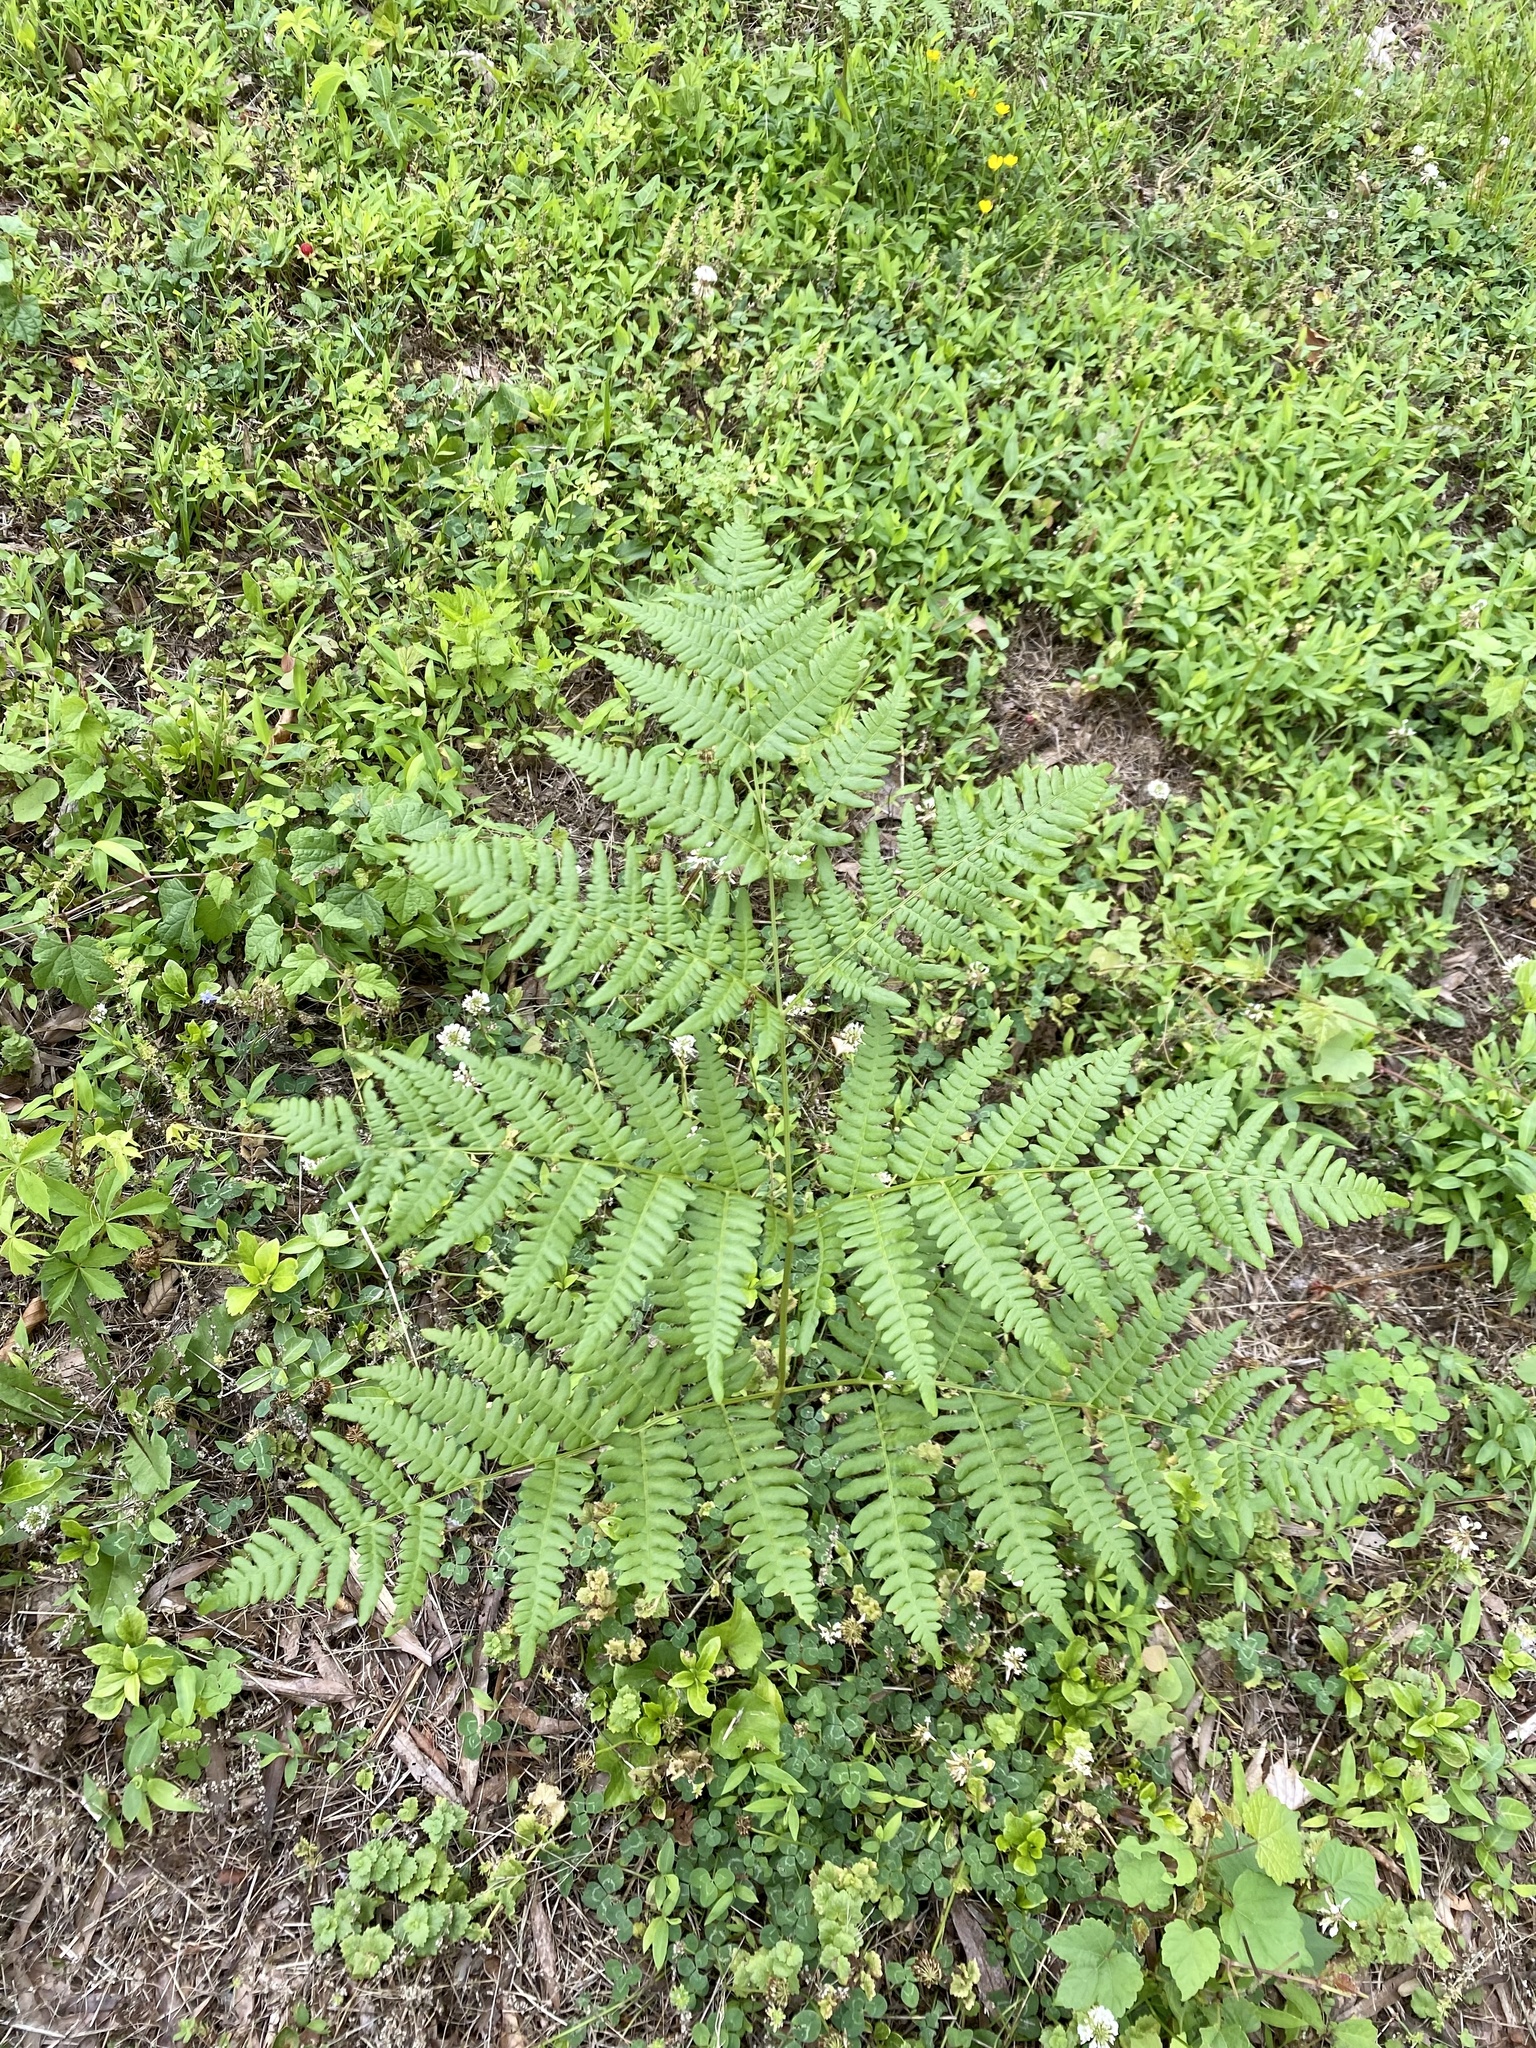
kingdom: Plantae
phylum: Tracheophyta
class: Polypodiopsida
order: Polypodiales
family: Dennstaedtiaceae
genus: Pteridium
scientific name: Pteridium aquilinum
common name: Bracken
